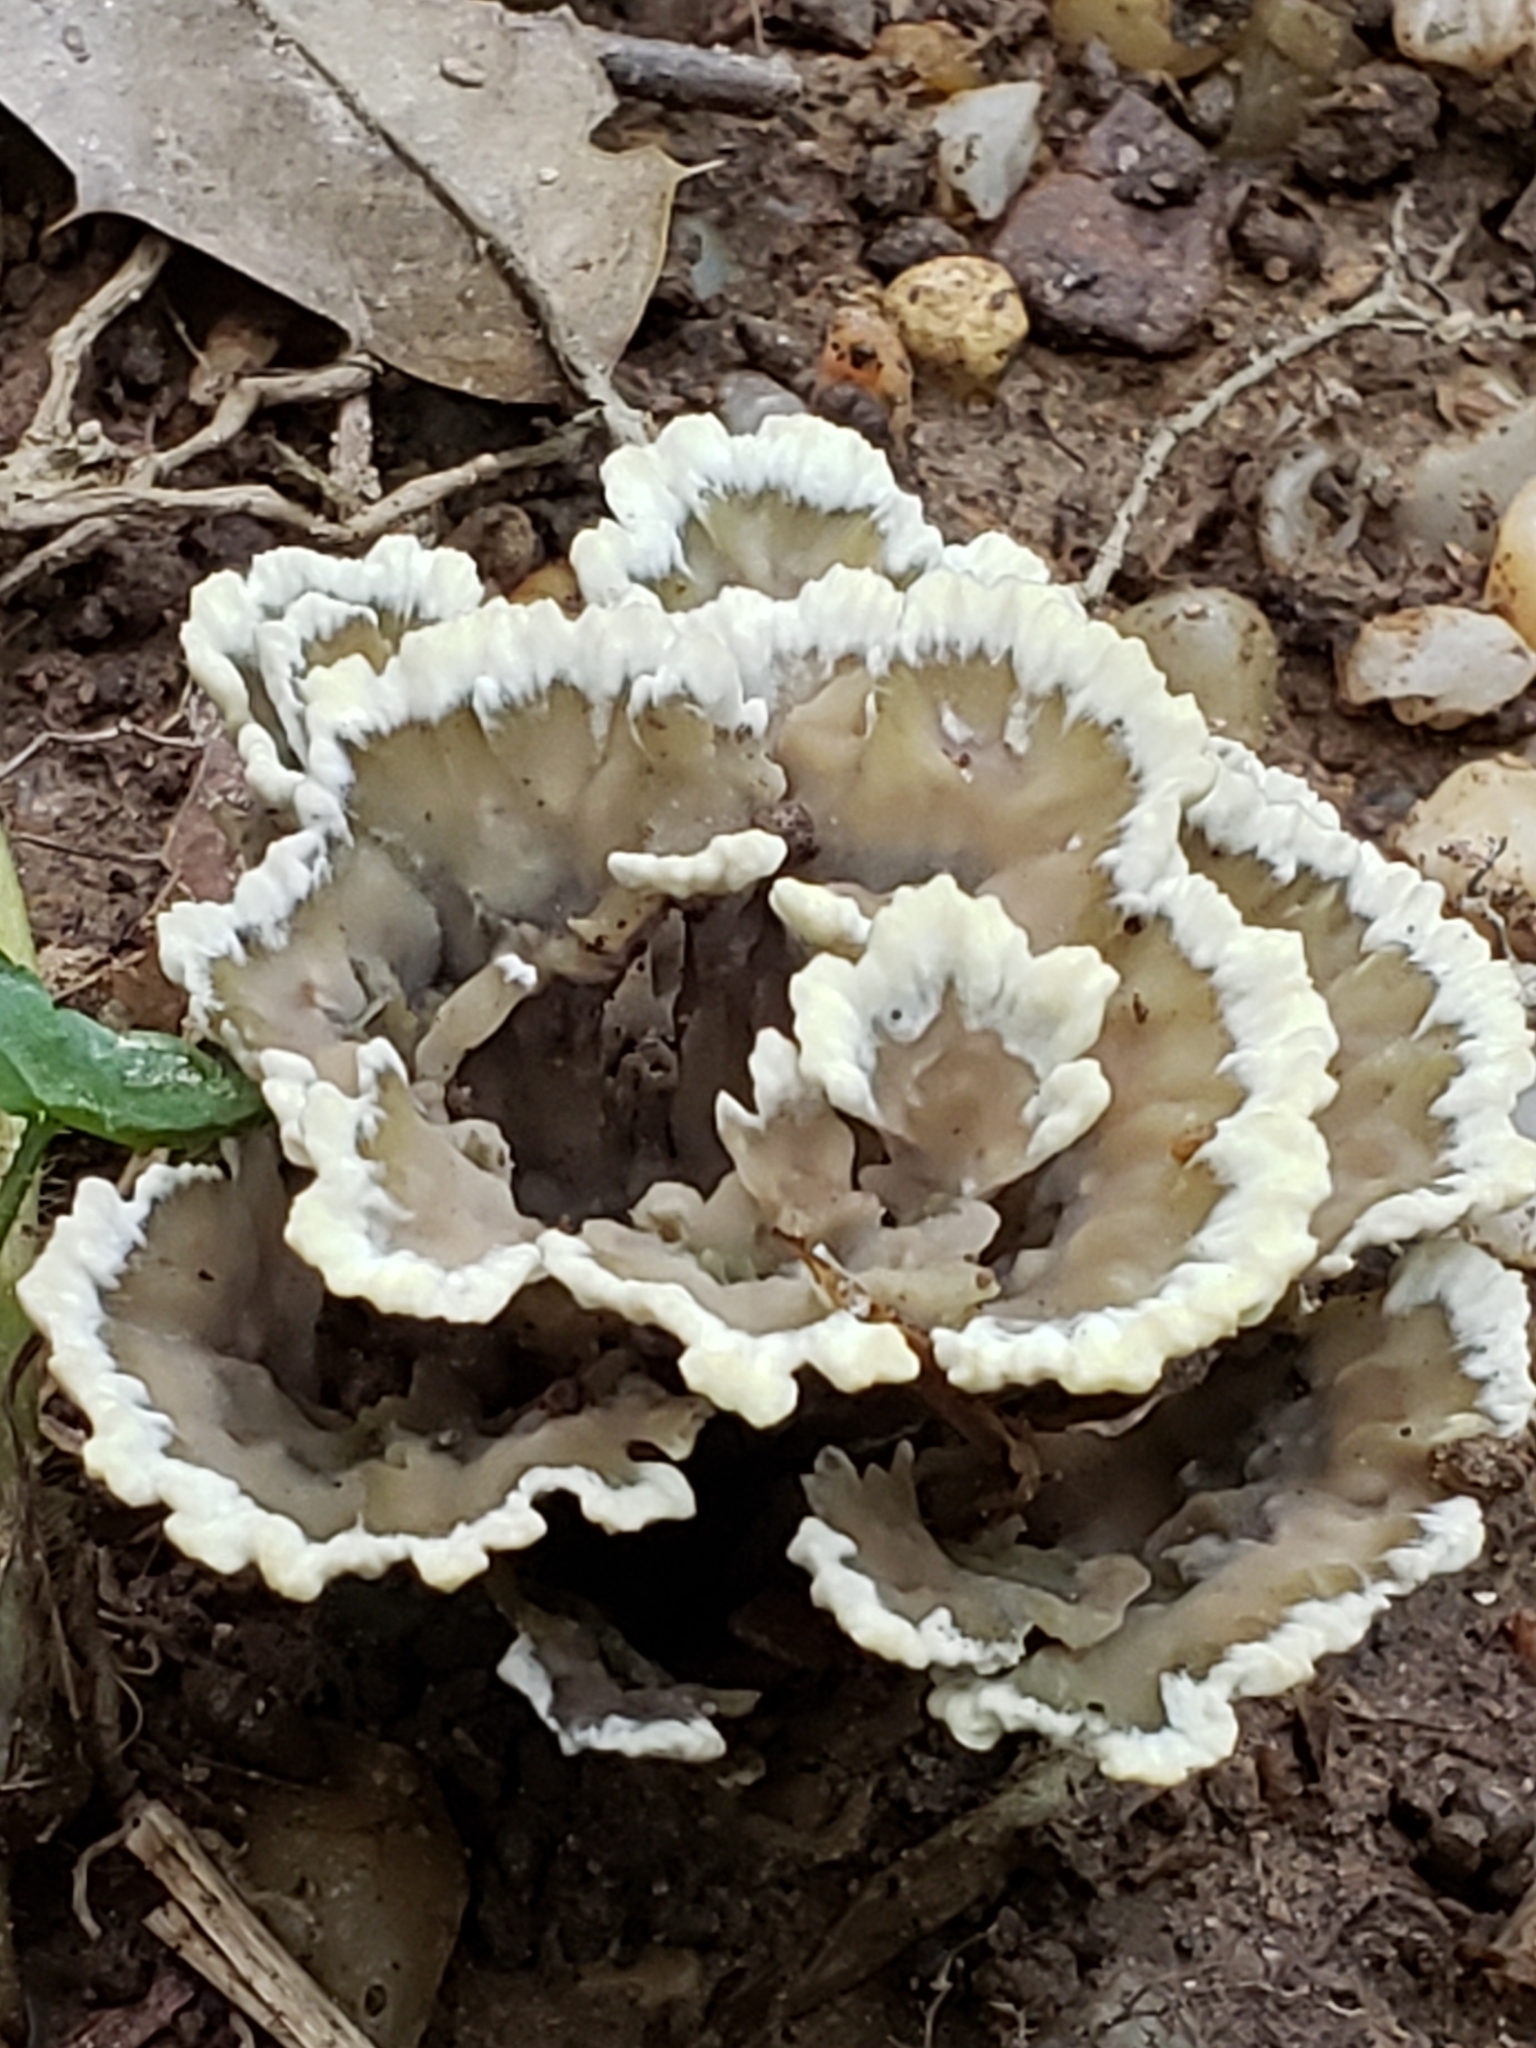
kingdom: Fungi
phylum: Basidiomycota
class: Agaricomycetes
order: Thelephorales
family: Thelephoraceae
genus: Thelephora
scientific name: Thelephora terrestris
